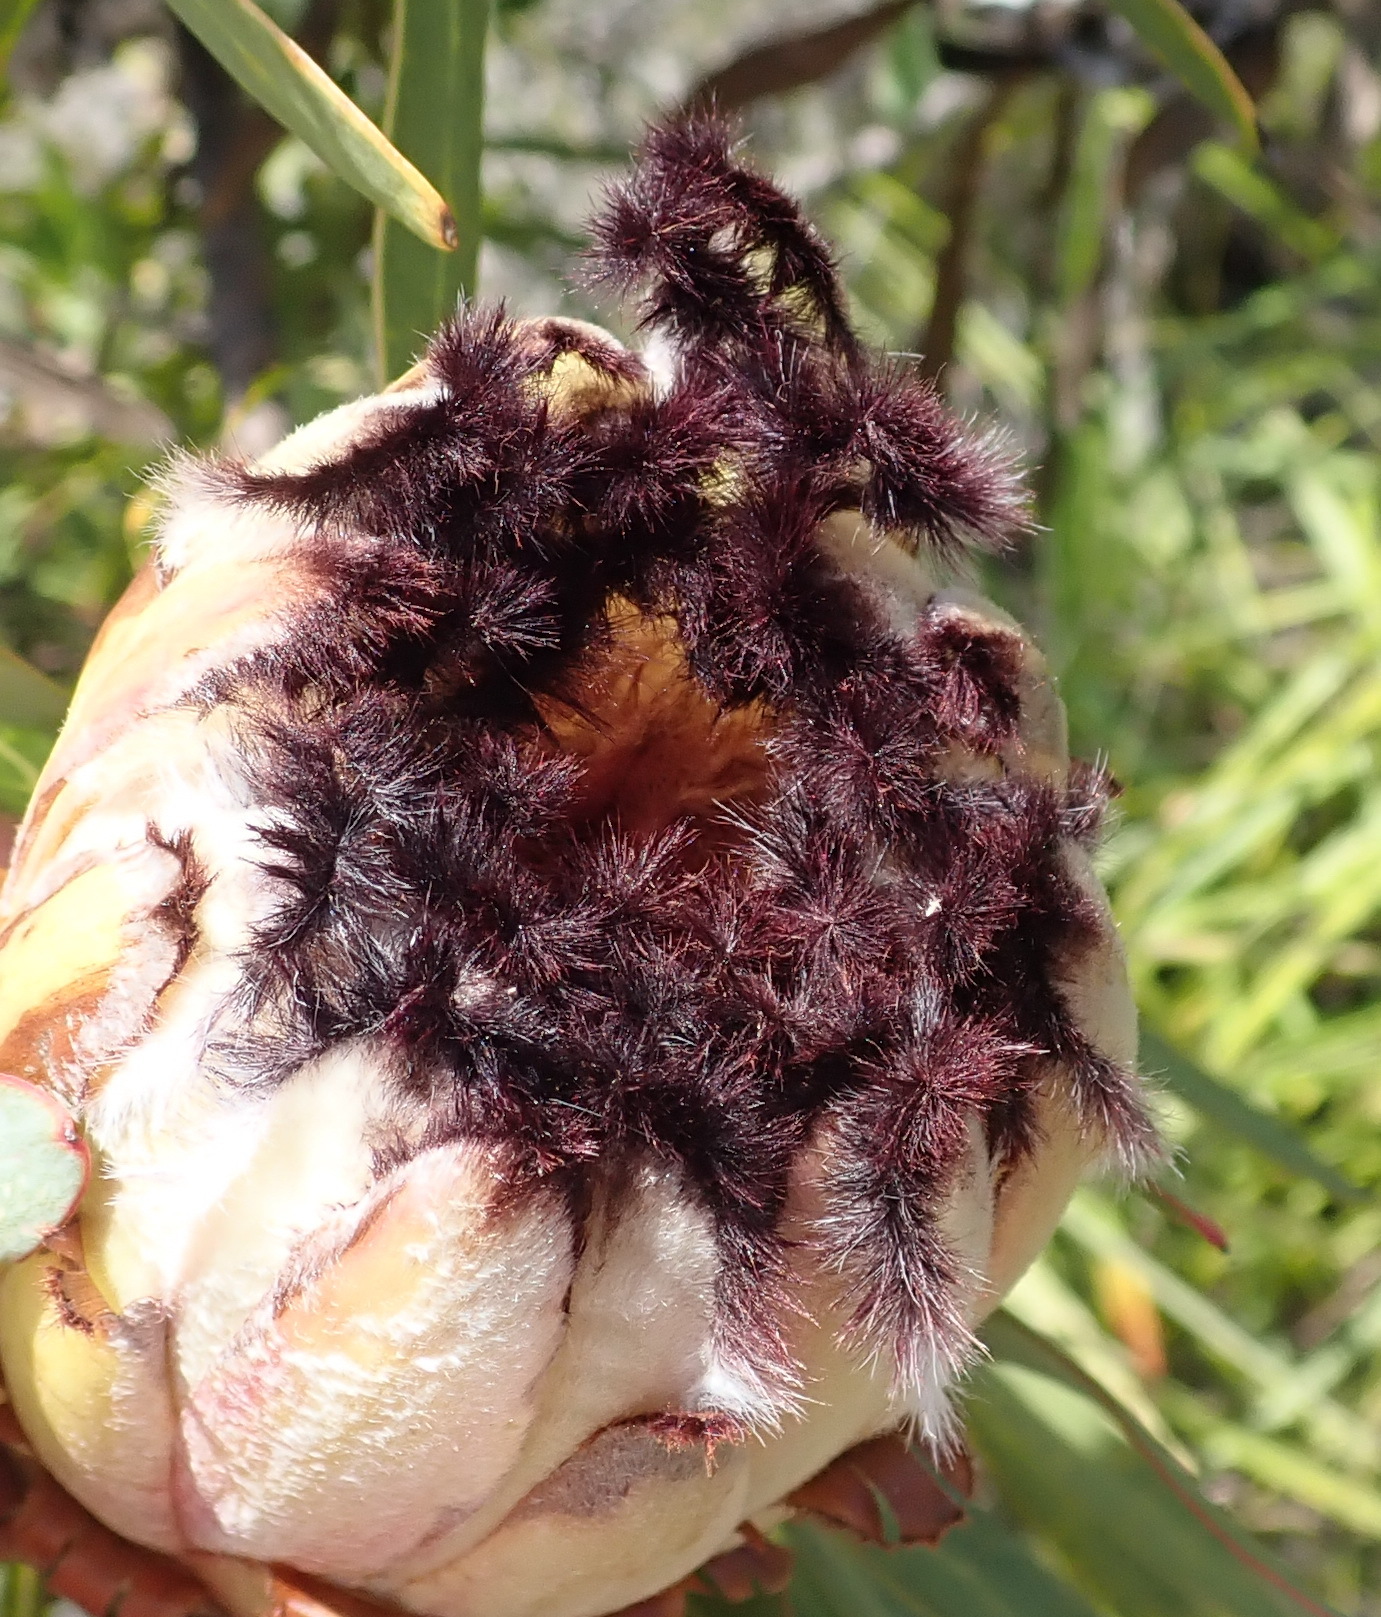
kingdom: Plantae
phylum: Tracheophyta
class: Magnoliopsida
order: Proteales
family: Proteaceae
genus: Protea
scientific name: Protea neriifolia
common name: Blue sugarbush
